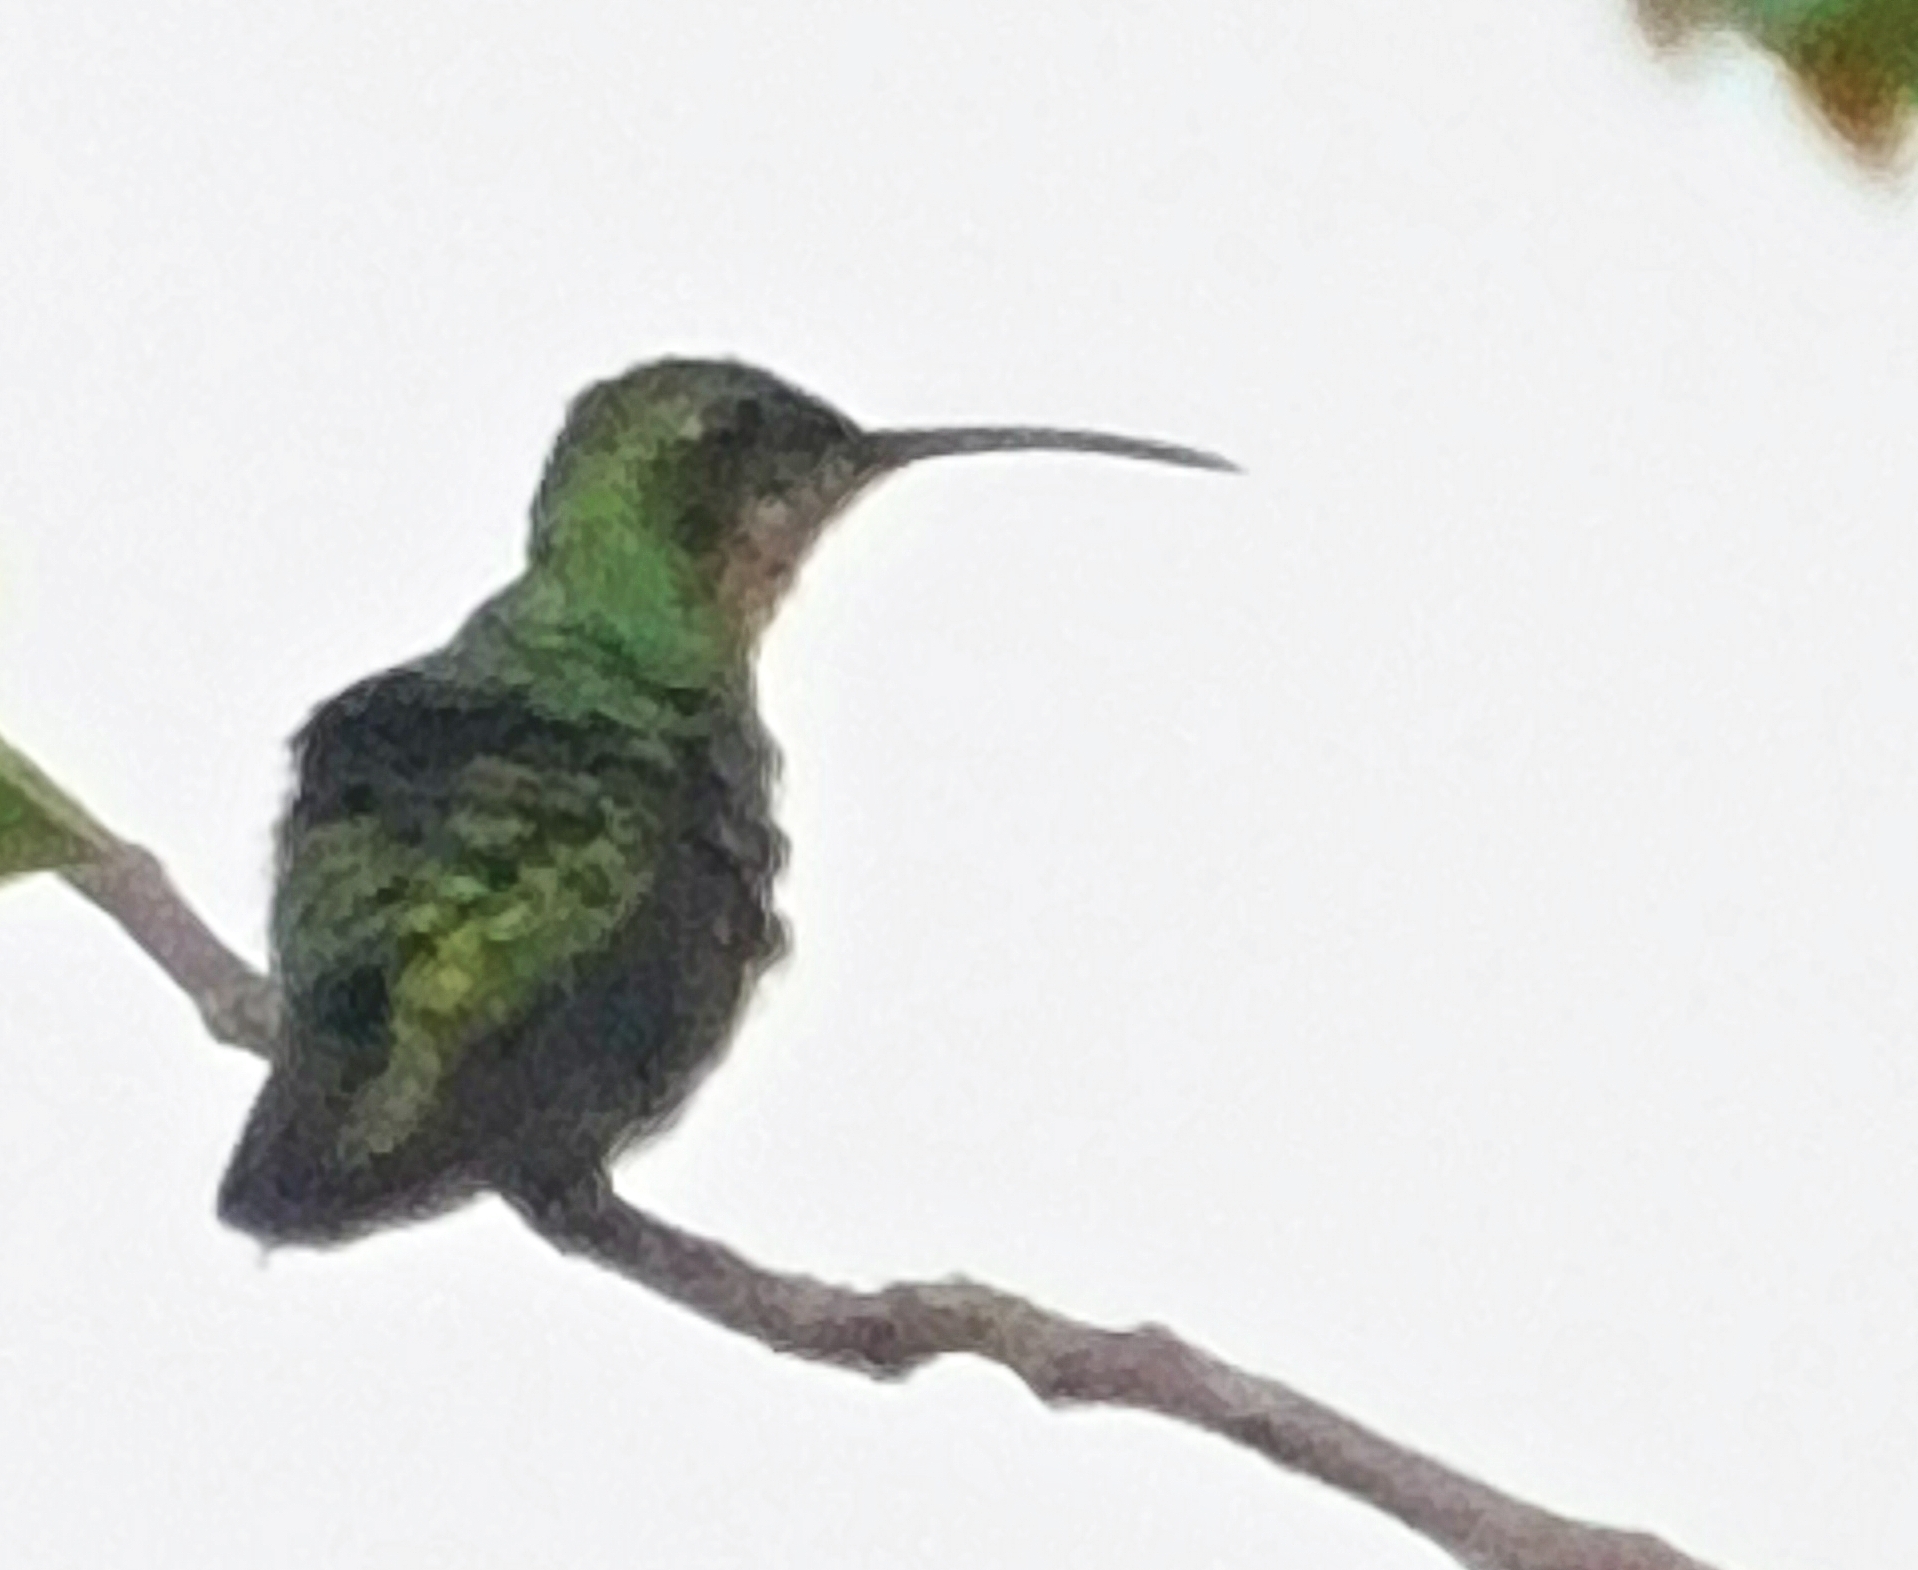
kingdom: Animalia
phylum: Chordata
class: Aves
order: Apodiformes
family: Trochilidae
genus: Anthracothorax
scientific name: Anthracothorax prevostii
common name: Green-breasted mango
